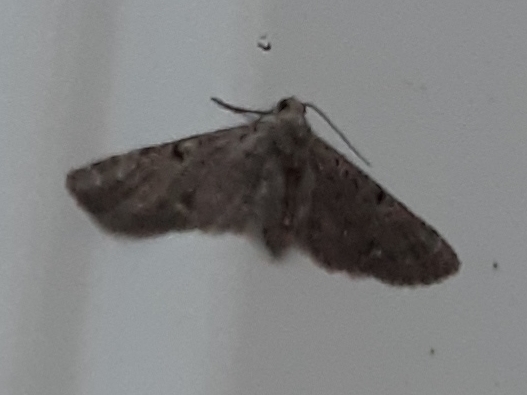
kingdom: Animalia
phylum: Arthropoda
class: Insecta
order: Lepidoptera
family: Geometridae
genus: Eupithecia
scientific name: Eupithecia miserulata
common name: Common eupithecia
